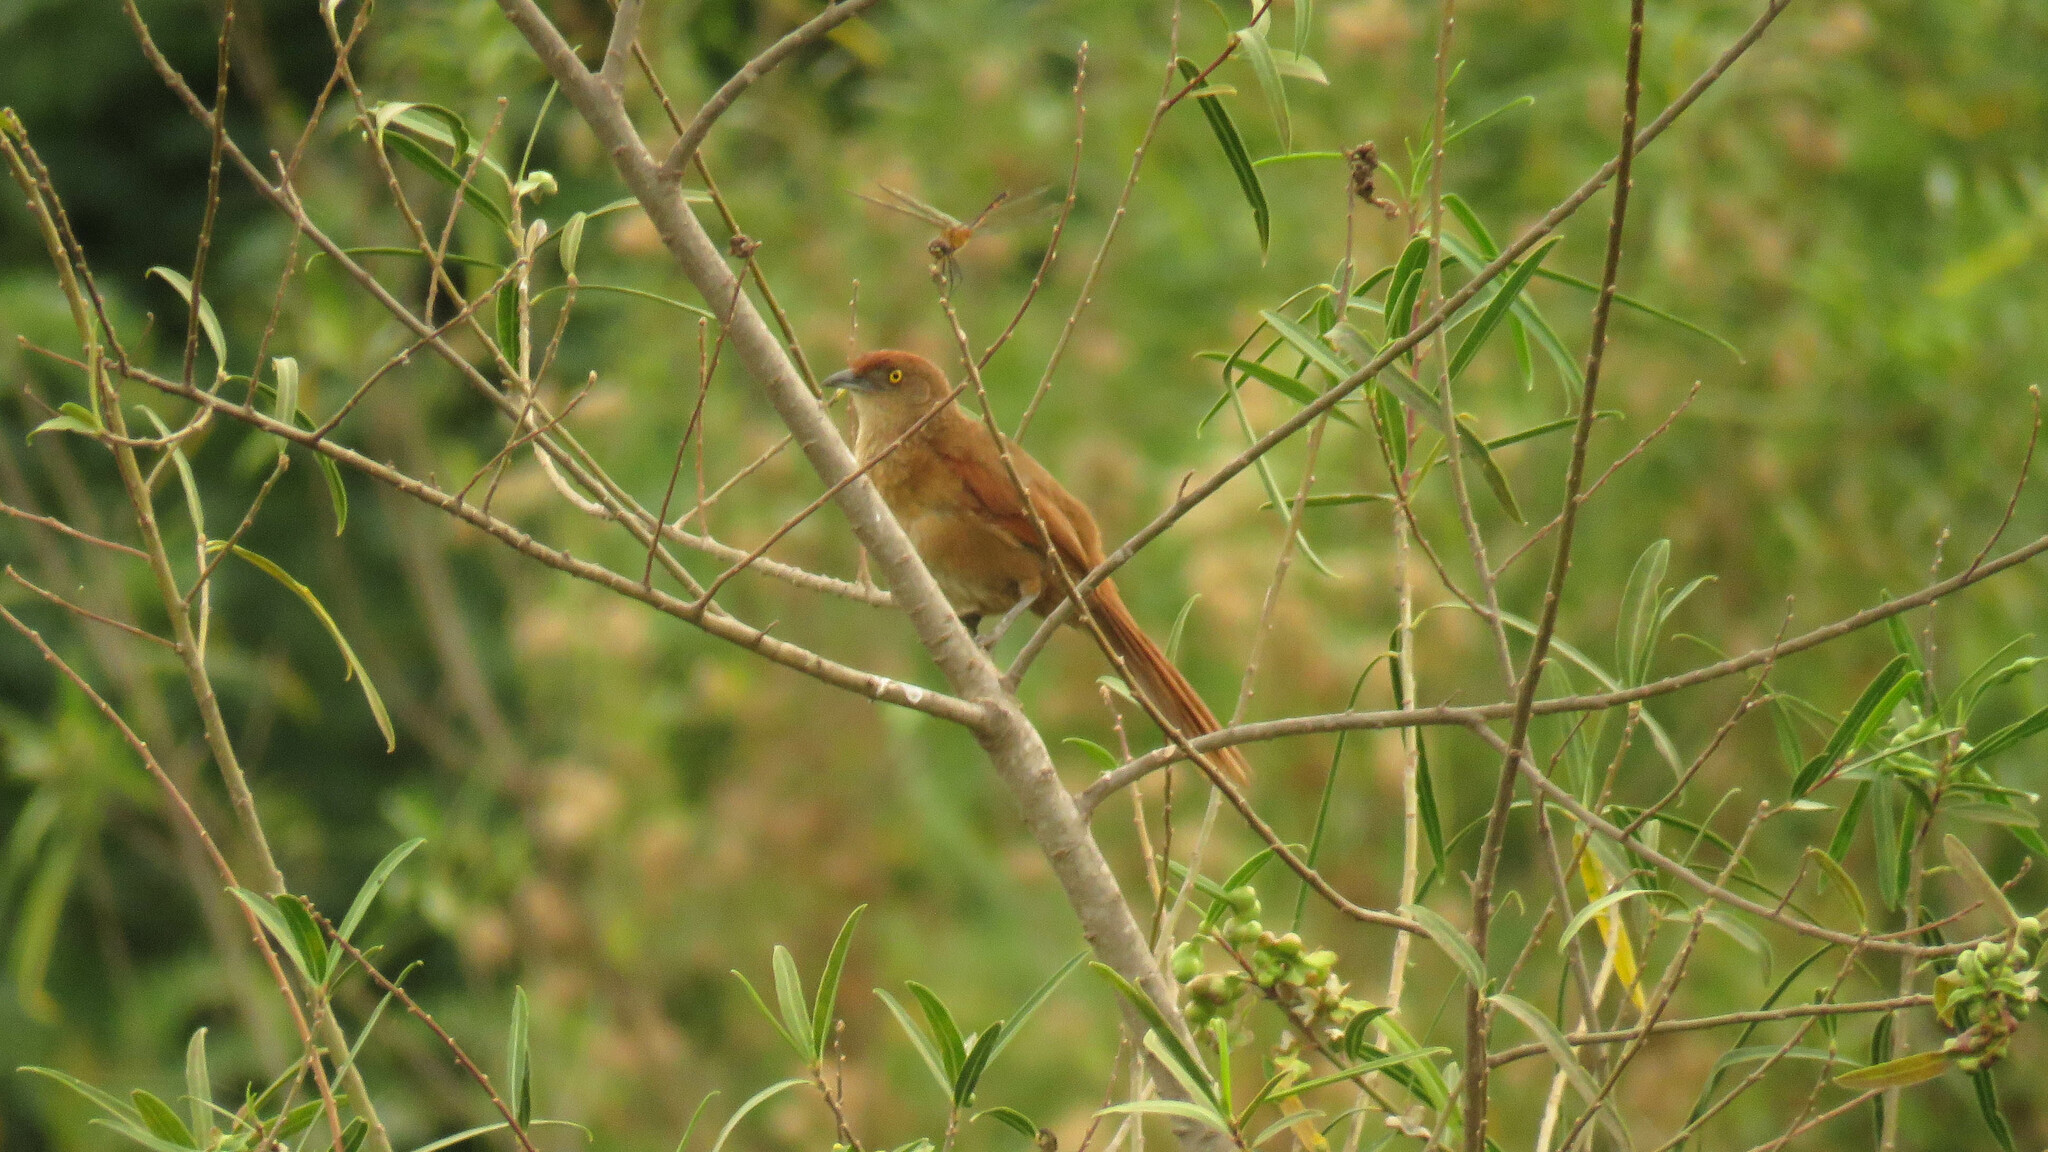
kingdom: Animalia
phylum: Chordata
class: Aves
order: Passeriformes
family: Furnariidae
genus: Phacellodomus
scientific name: Phacellodomus ruber
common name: Greater thornbird
